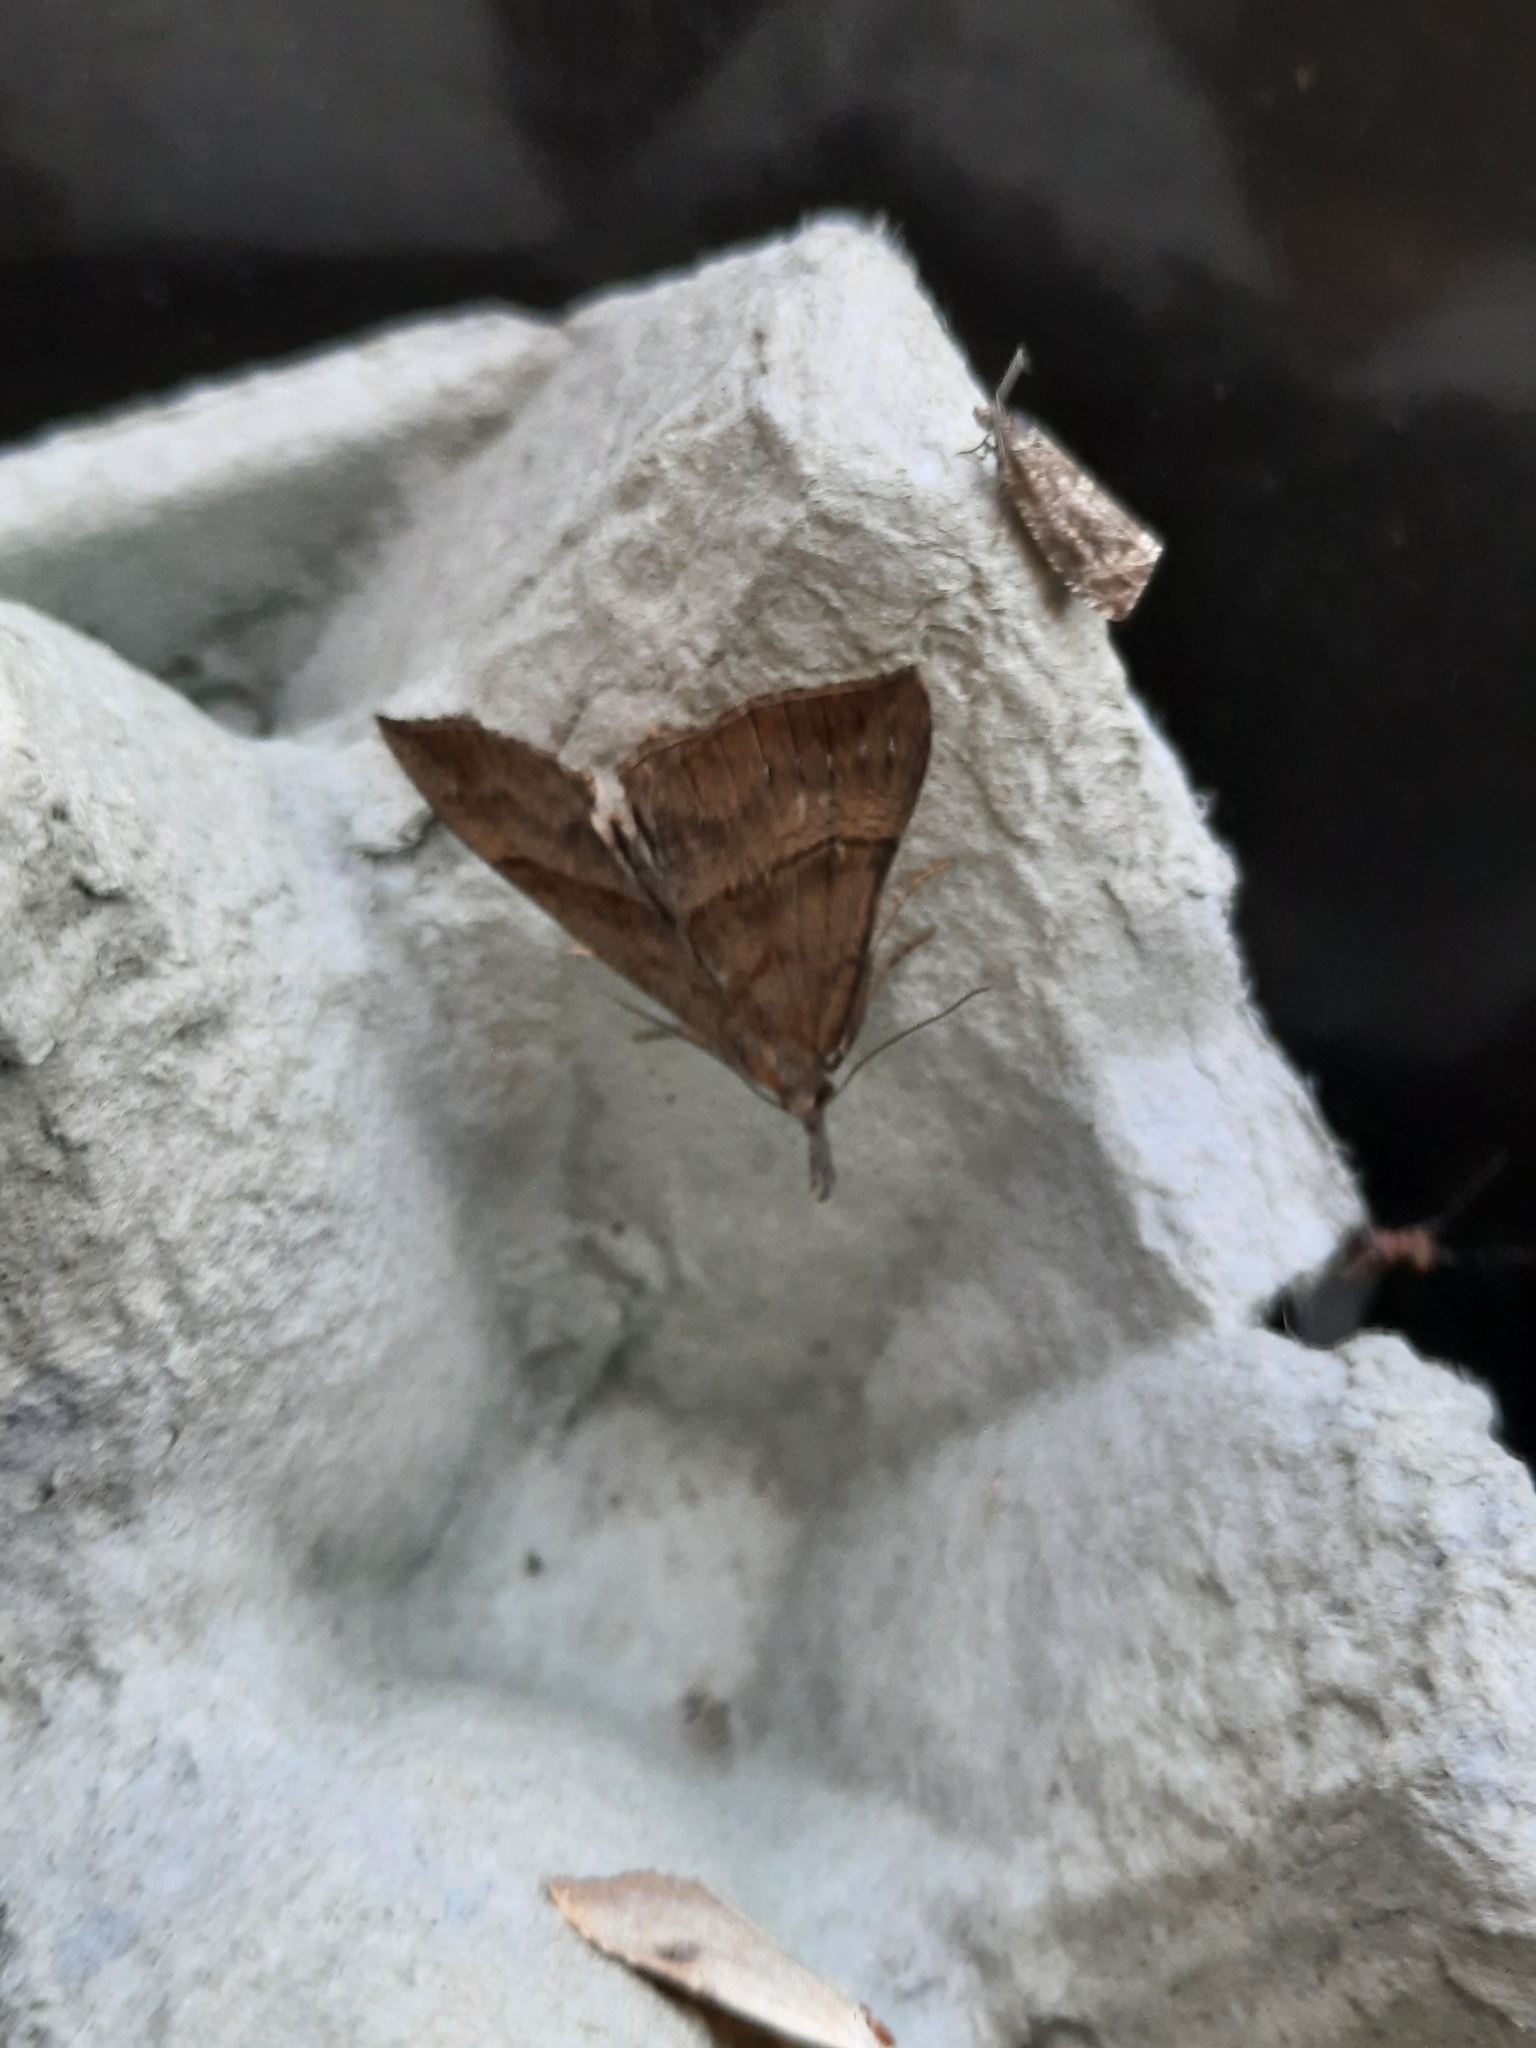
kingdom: Animalia
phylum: Arthropoda
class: Insecta
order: Lepidoptera
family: Erebidae
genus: Hypena
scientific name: Hypena proboscidalis
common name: Snout
